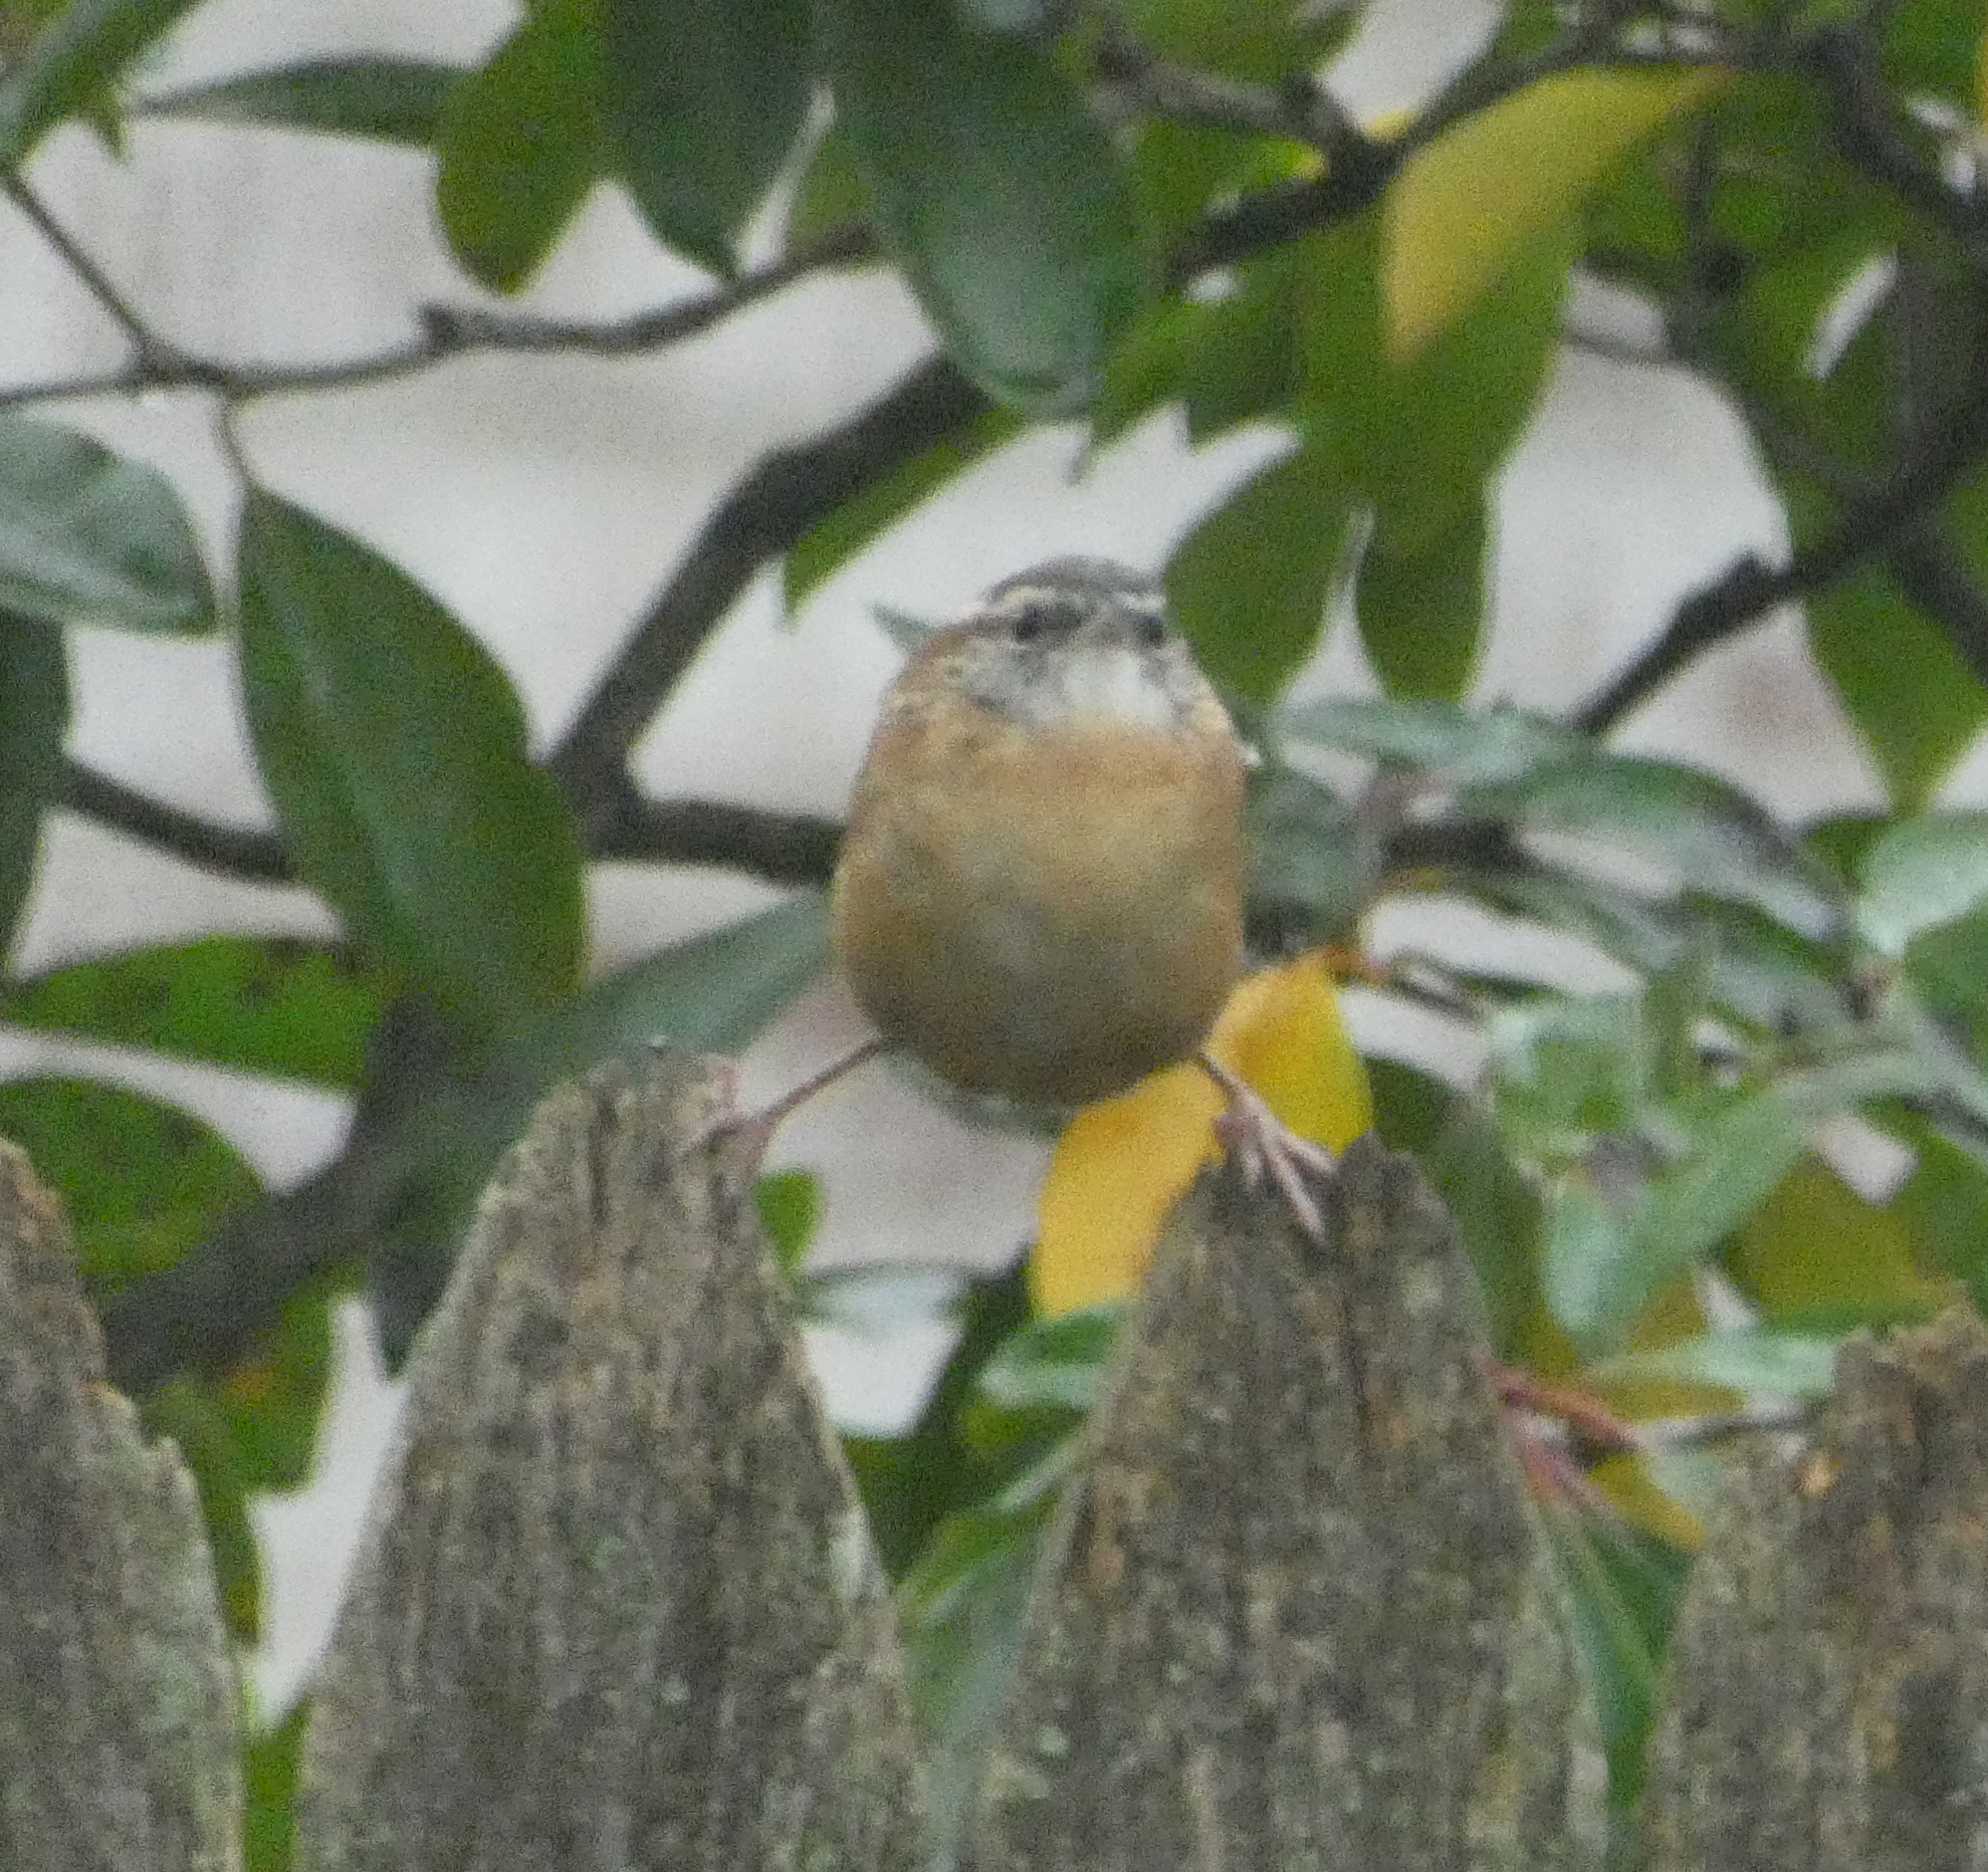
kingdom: Animalia
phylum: Chordata
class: Aves
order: Passeriformes
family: Troglodytidae
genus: Thryothorus
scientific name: Thryothorus ludovicianus
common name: Carolina wren
